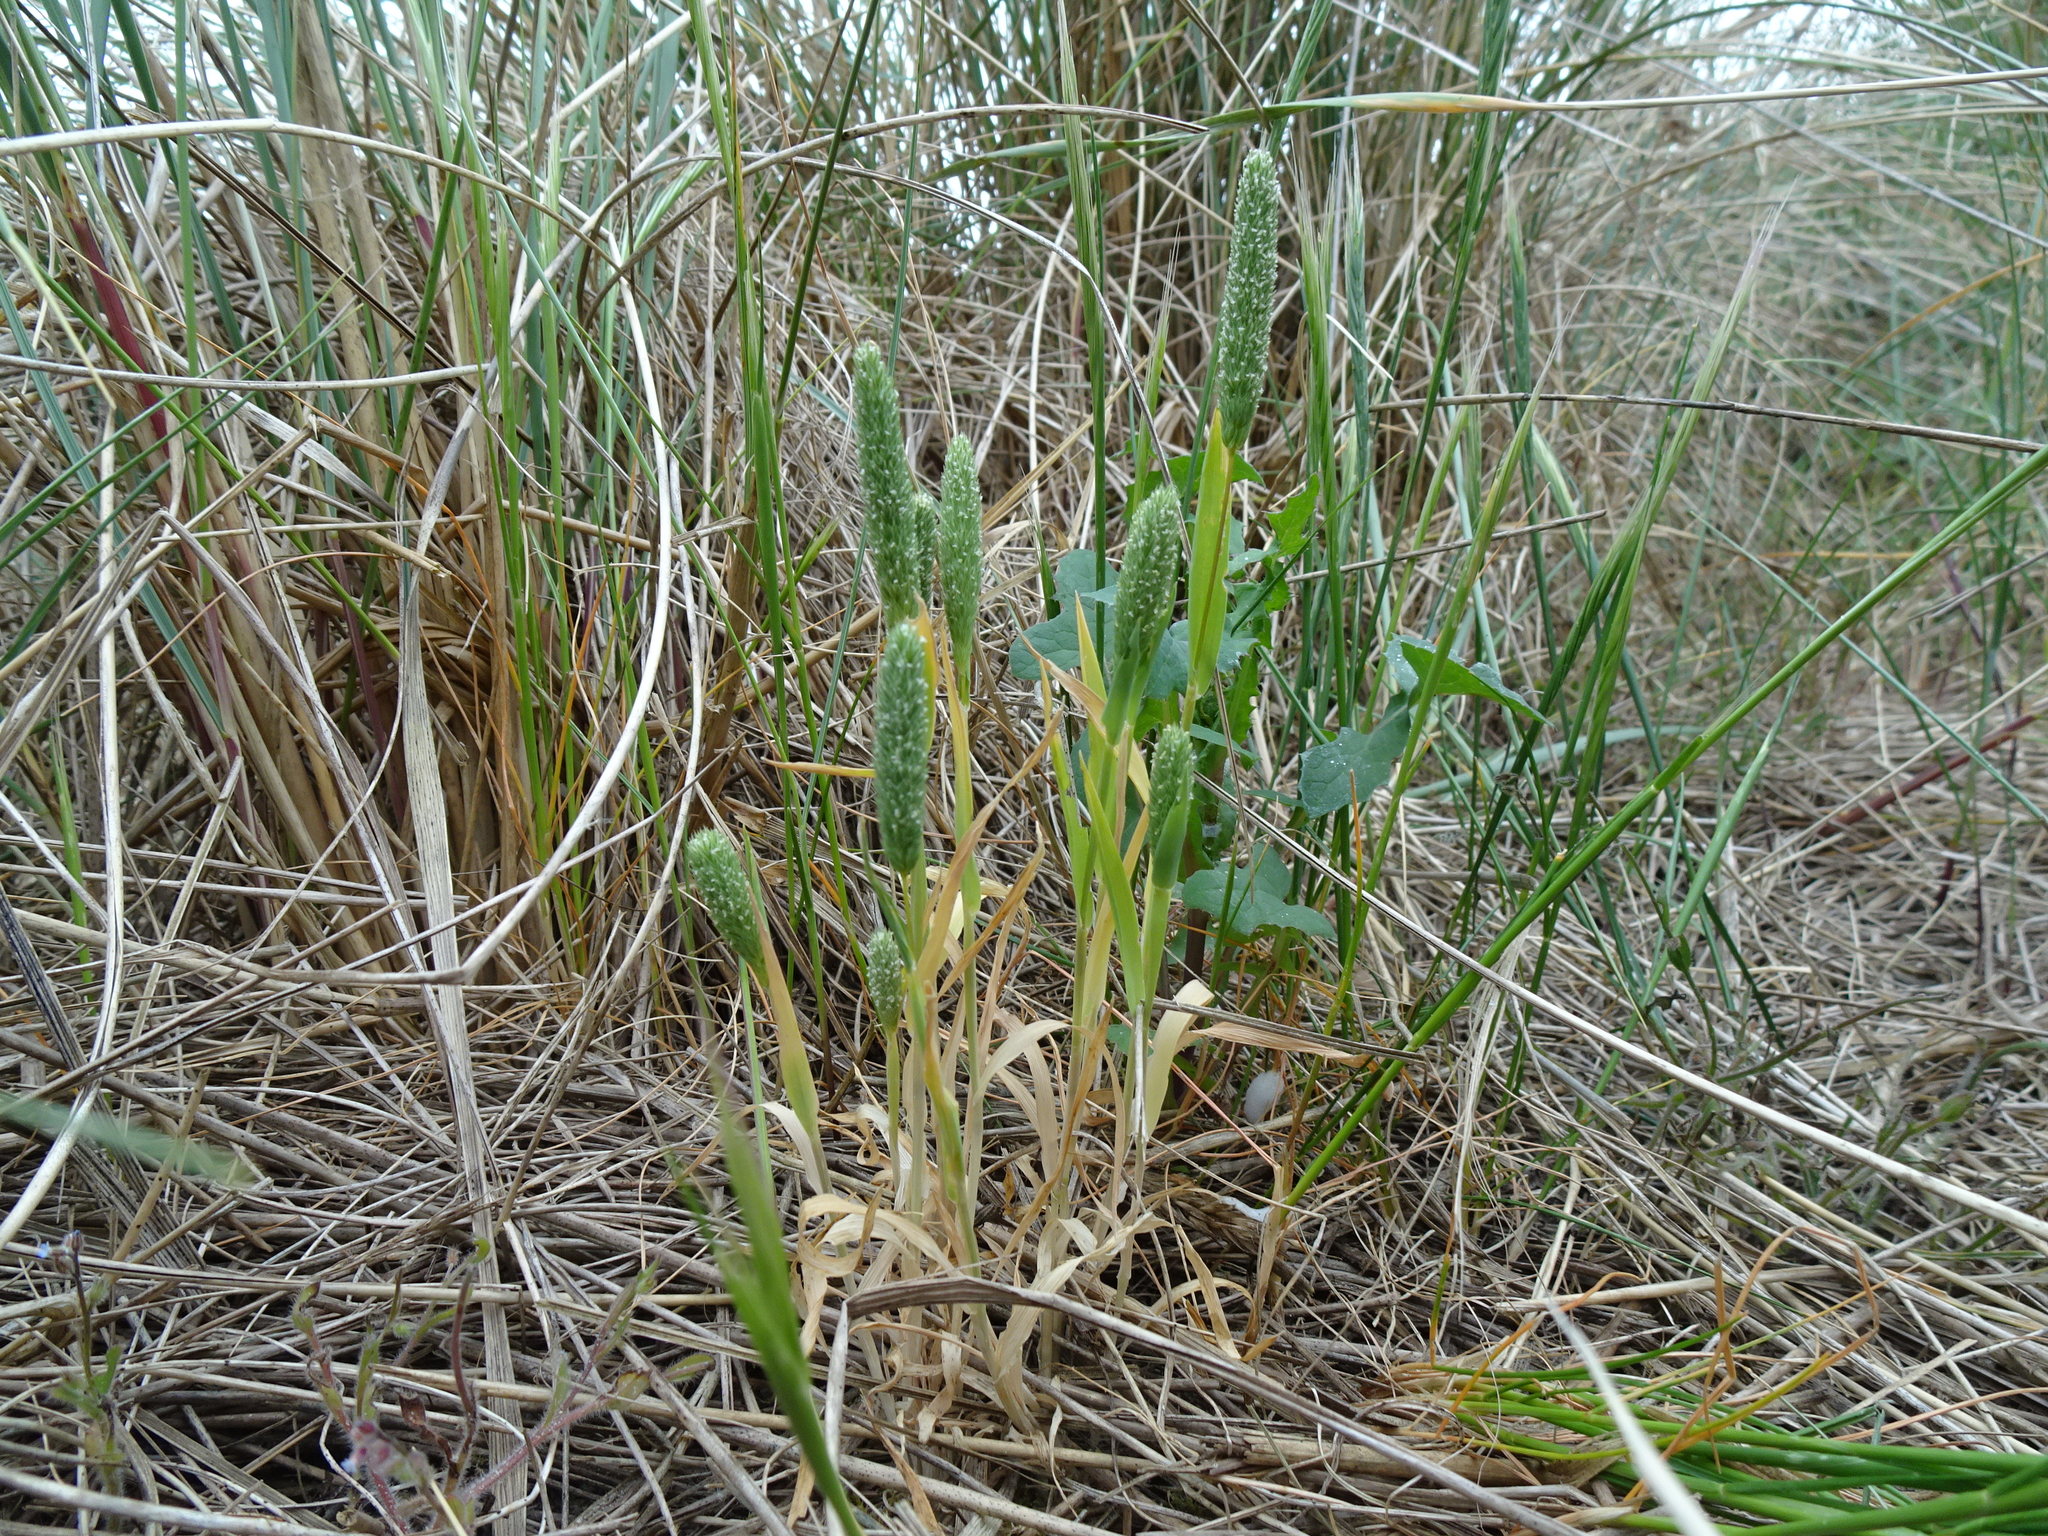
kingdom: Plantae
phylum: Tracheophyta
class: Liliopsida
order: Poales
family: Poaceae
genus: Phleum
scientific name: Phleum arenarium
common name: Sand cat's-tail
